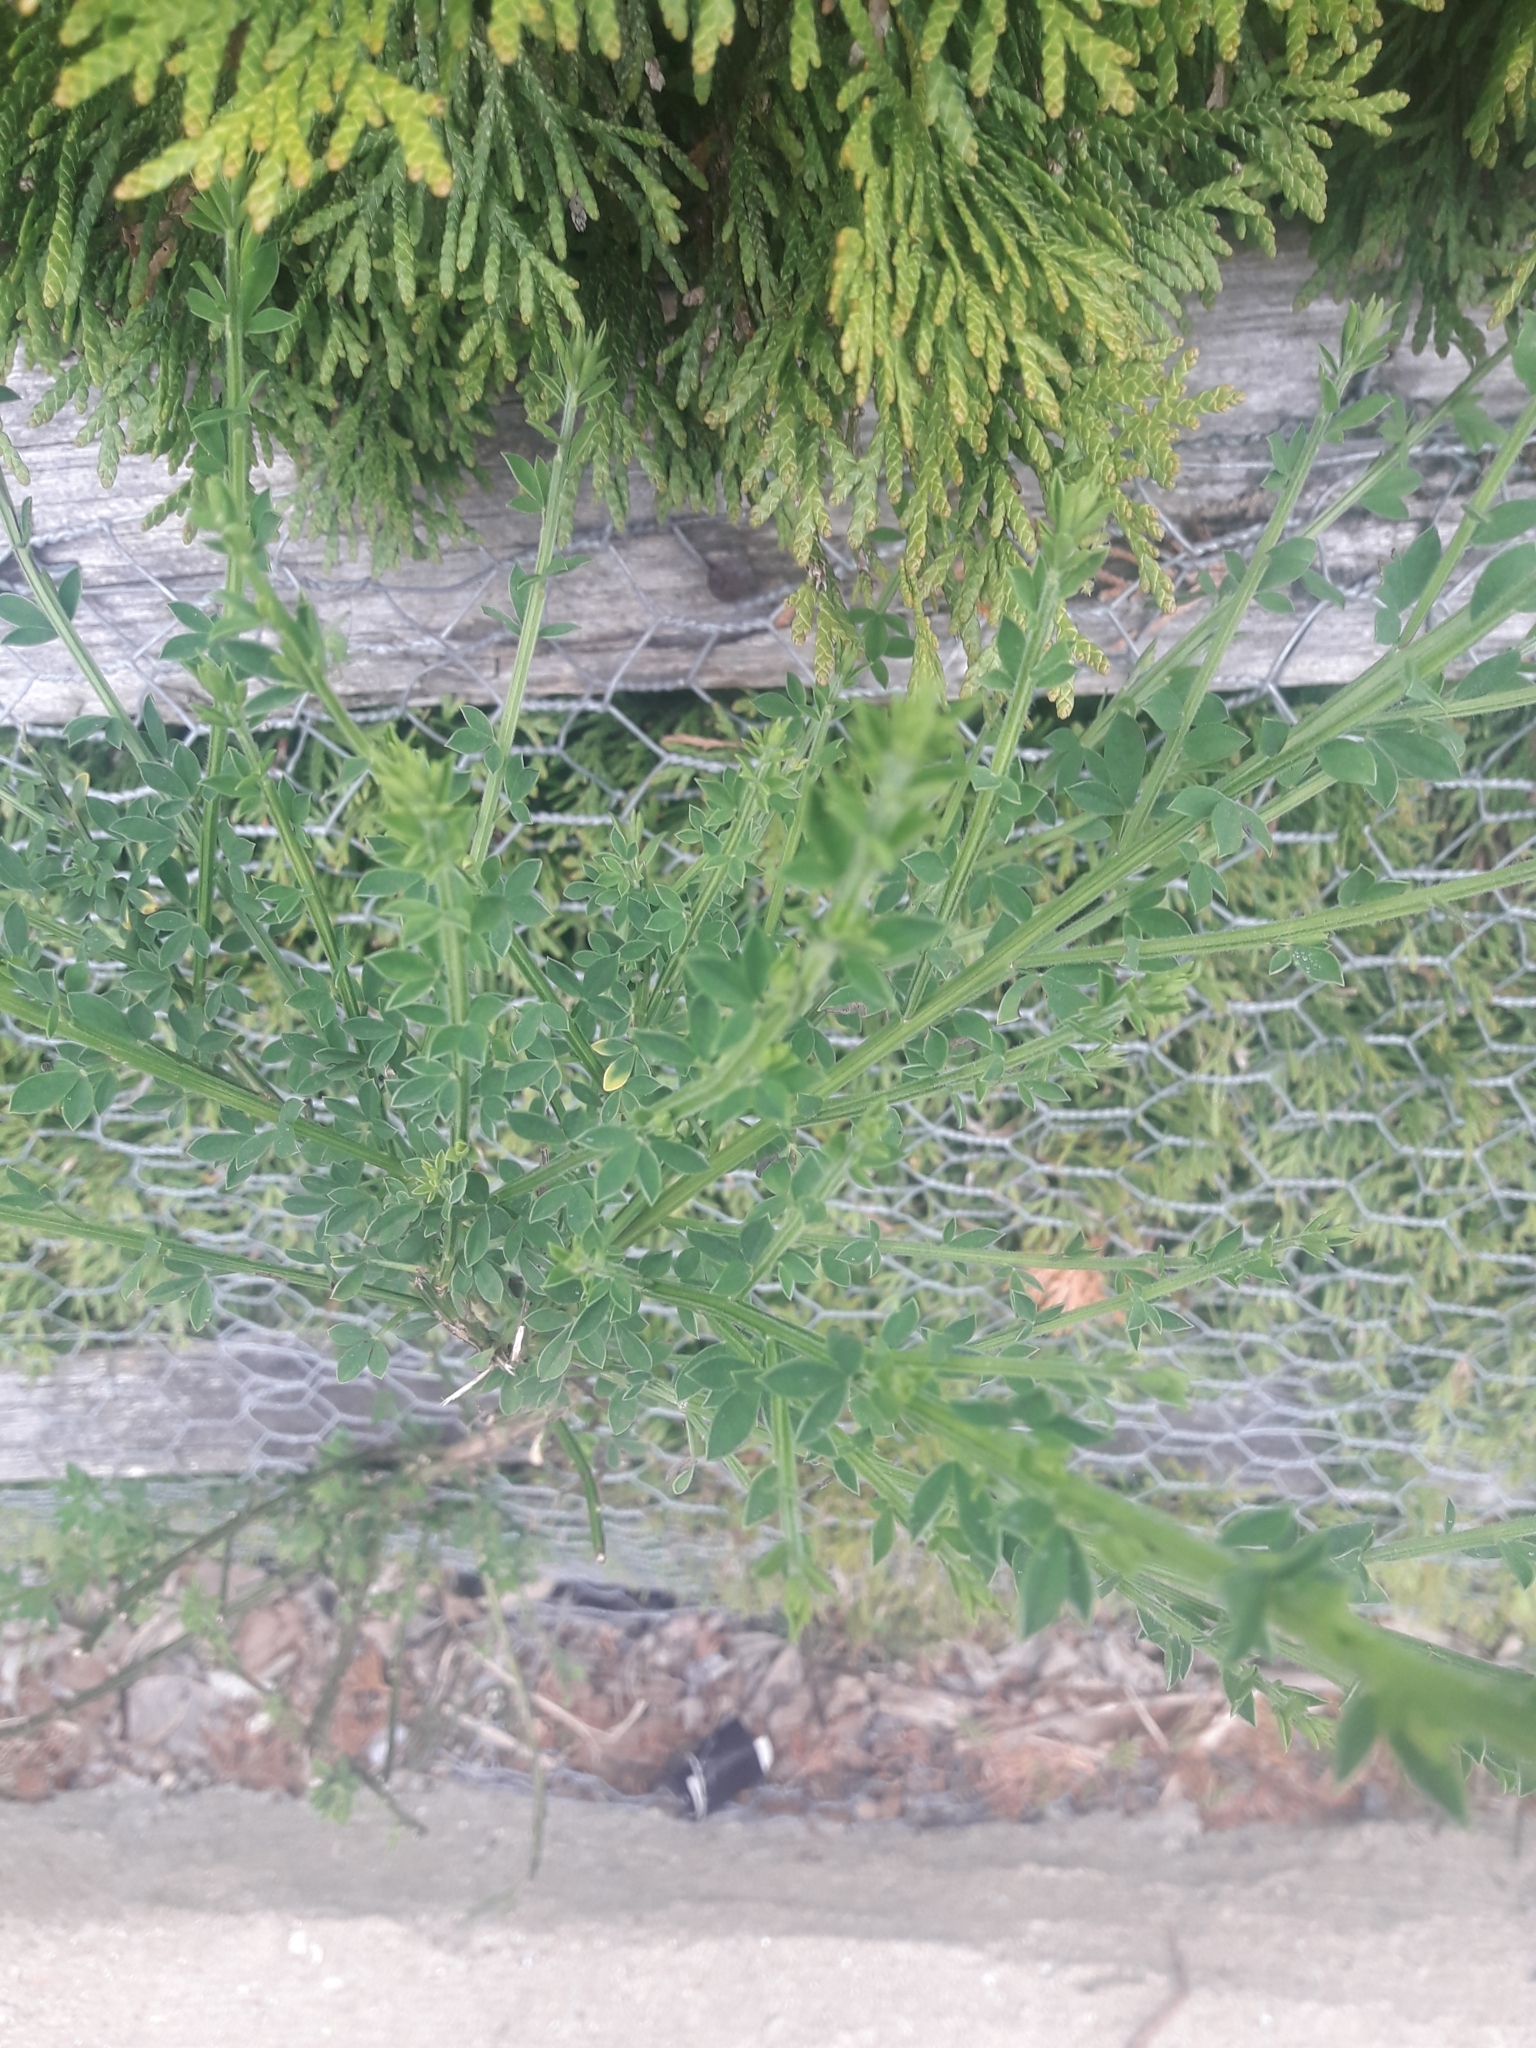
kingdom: Plantae
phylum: Tracheophyta
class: Magnoliopsida
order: Fabales
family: Fabaceae
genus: Cytisus
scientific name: Cytisus scoparius
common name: Scotch broom
